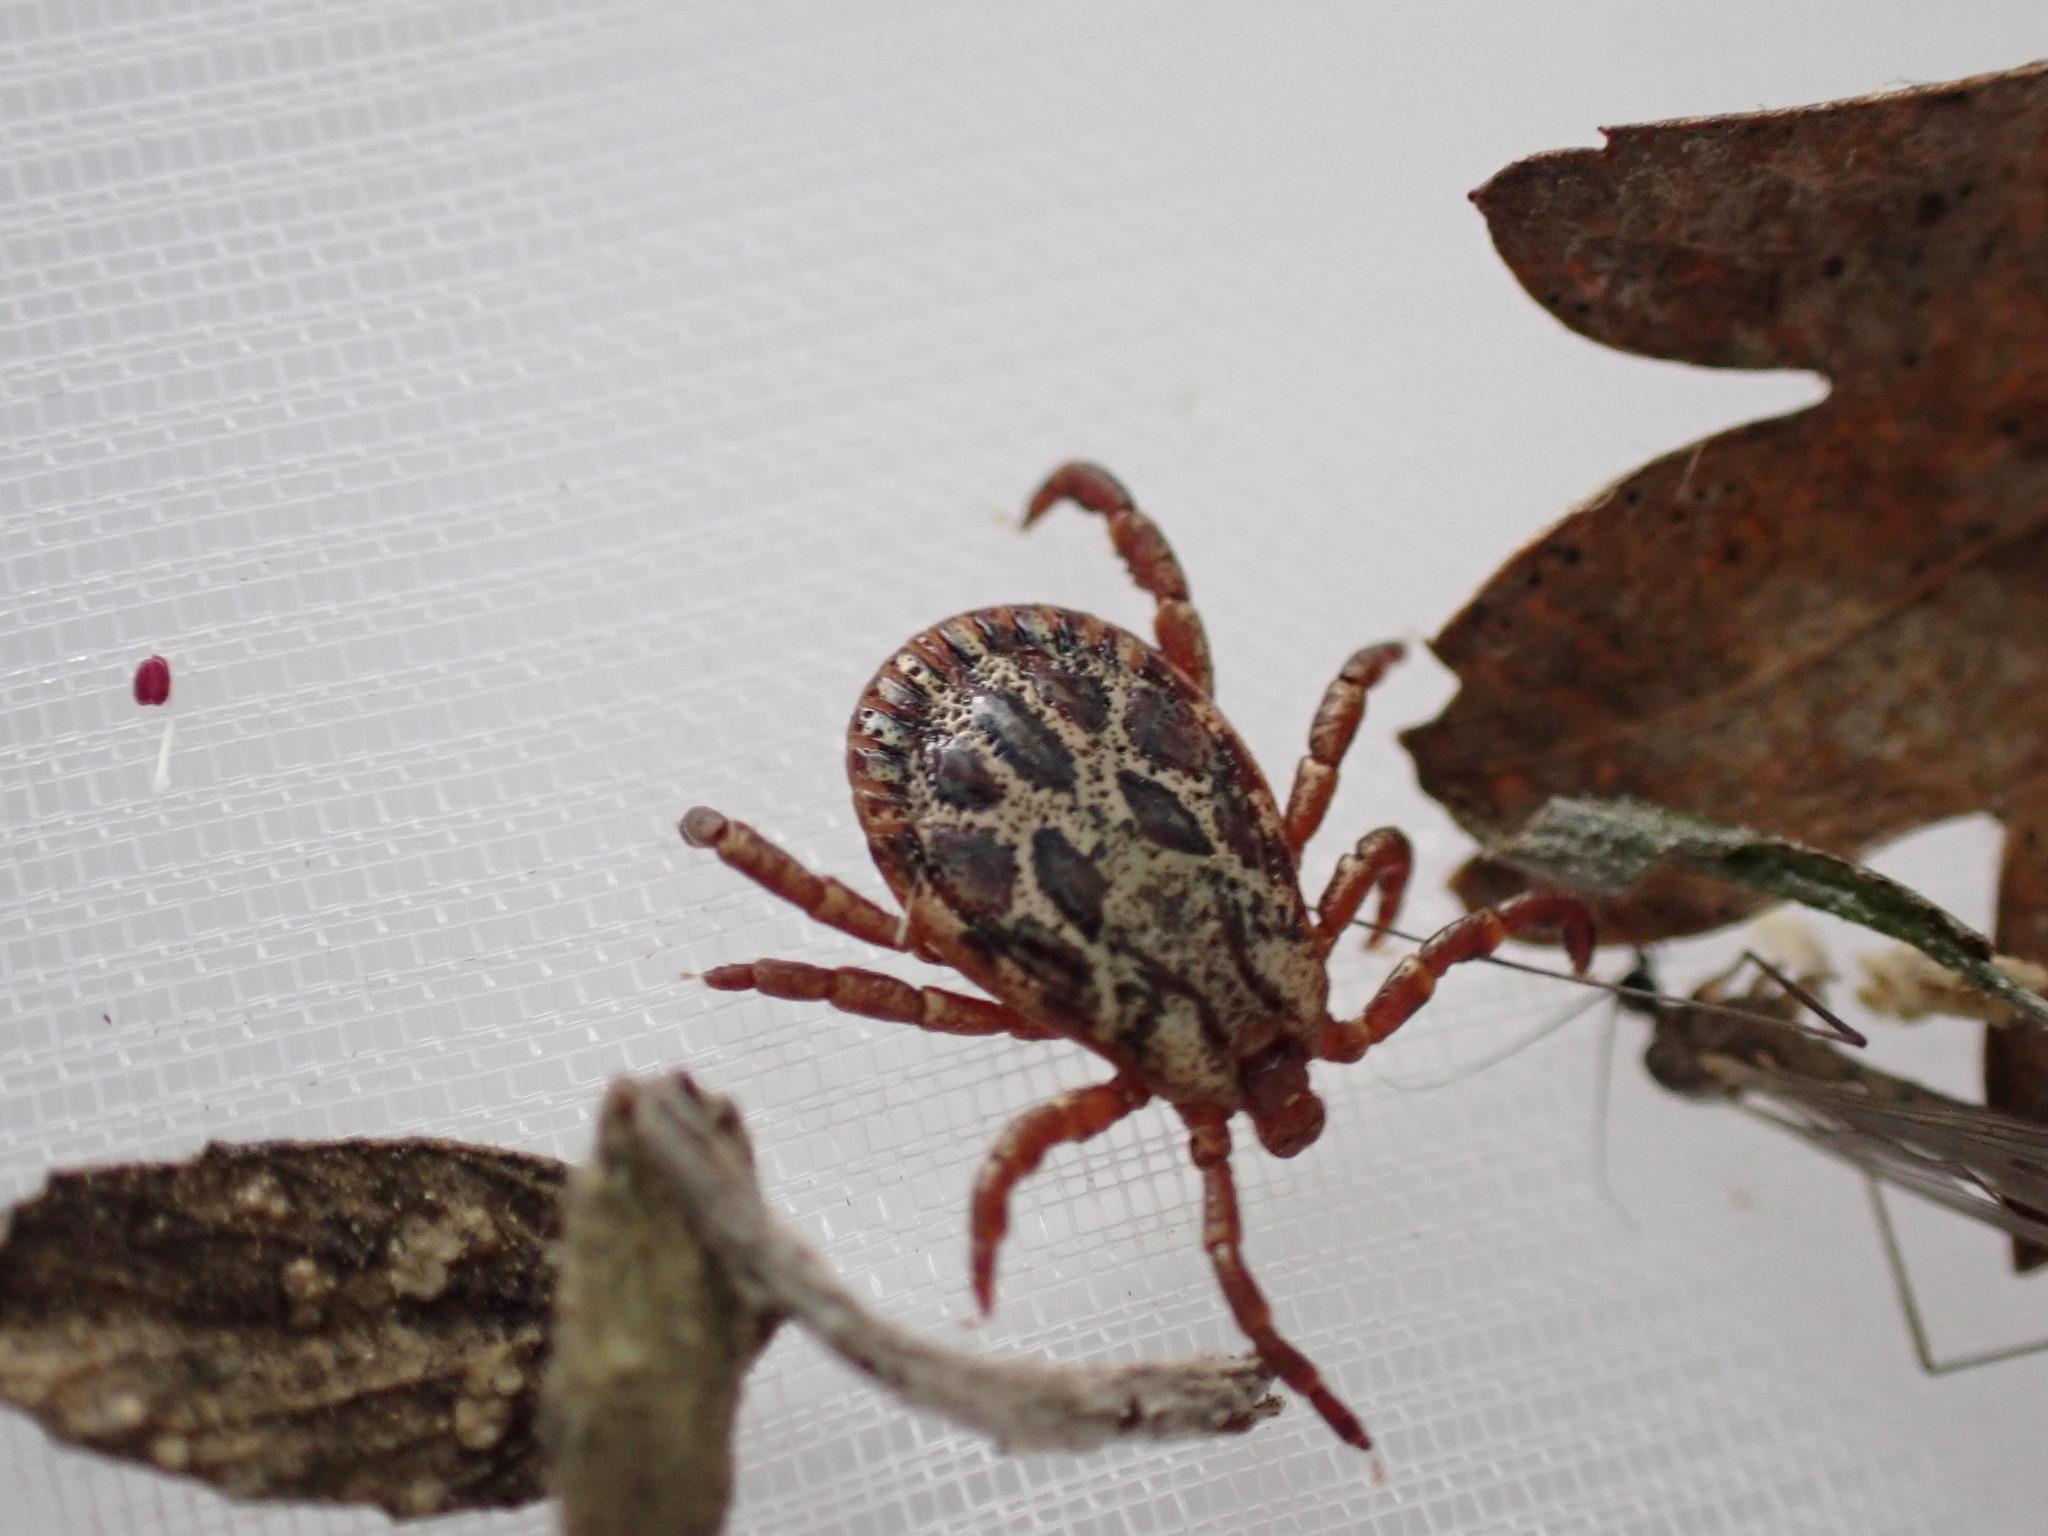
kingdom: Animalia
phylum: Arthropoda
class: Arachnida
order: Ixodida
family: Ixodidae
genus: Dermacentor
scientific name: Dermacentor marginatus
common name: Ornate sheep tick
